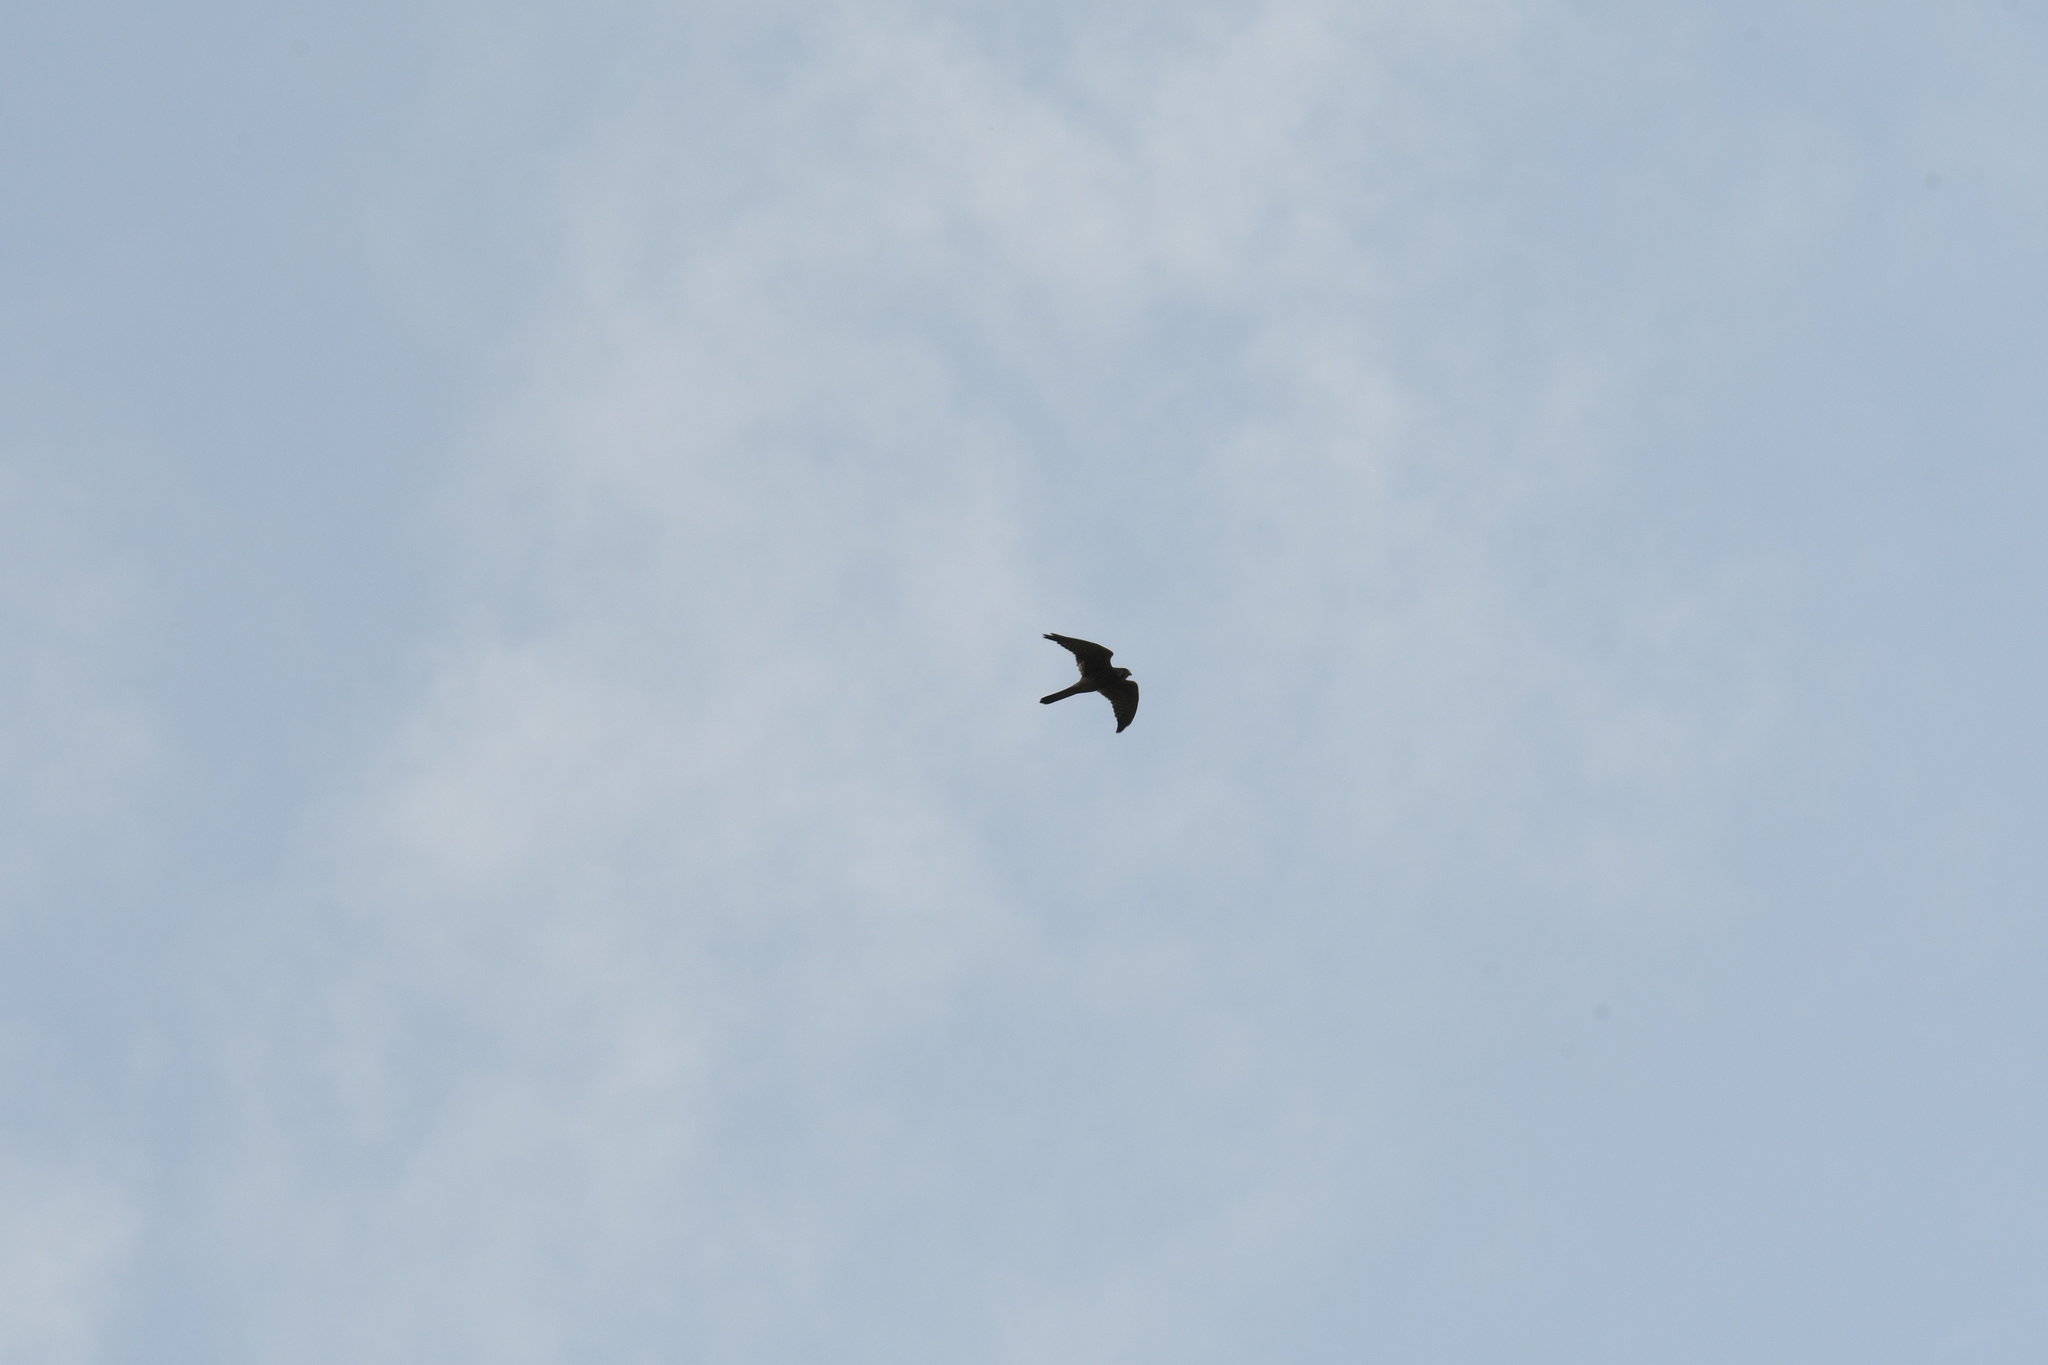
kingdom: Animalia
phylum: Chordata
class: Aves
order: Falconiformes
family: Falconidae
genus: Falco
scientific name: Falco tinnunculus
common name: Common kestrel
